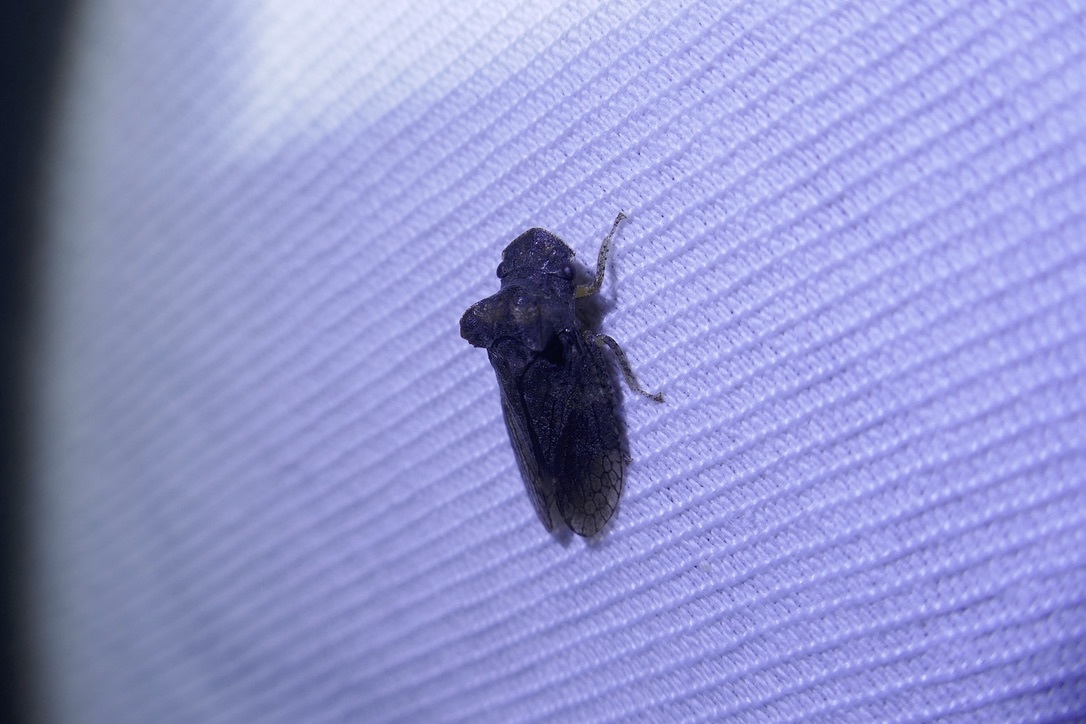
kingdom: Animalia
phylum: Arthropoda
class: Insecta
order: Hemiptera
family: Cicadellidae
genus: Ledra
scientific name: Ledra aurita
